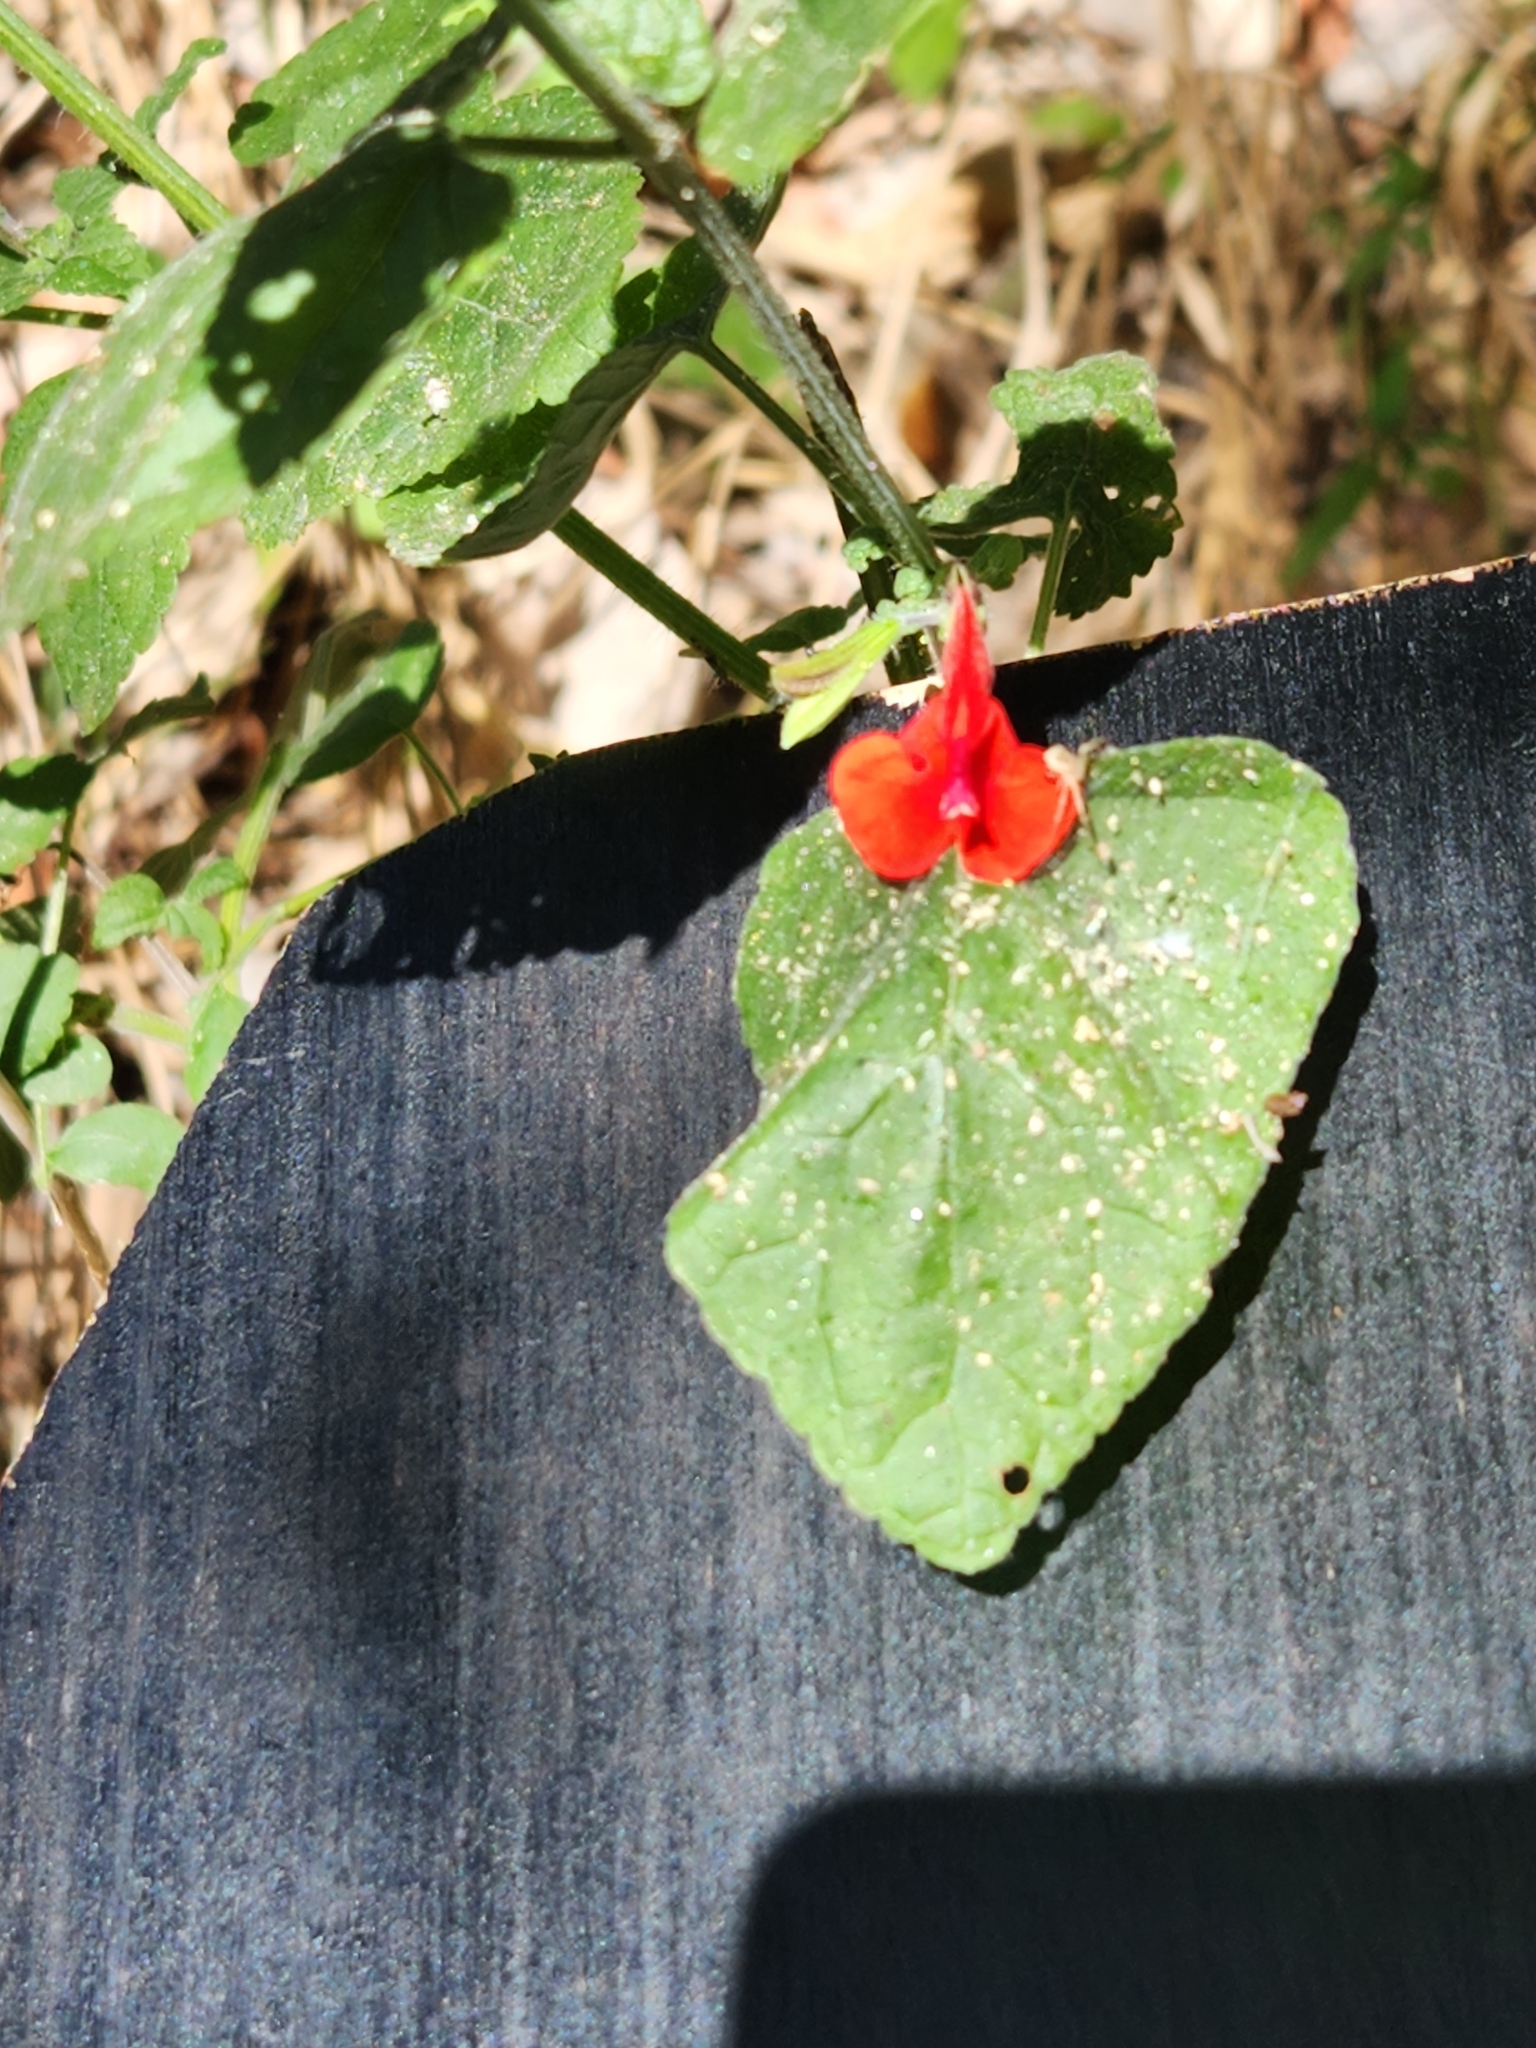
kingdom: Plantae
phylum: Tracheophyta
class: Magnoliopsida
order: Lamiales
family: Lamiaceae
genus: Salvia
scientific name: Salvia coccinea
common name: Blood sage
